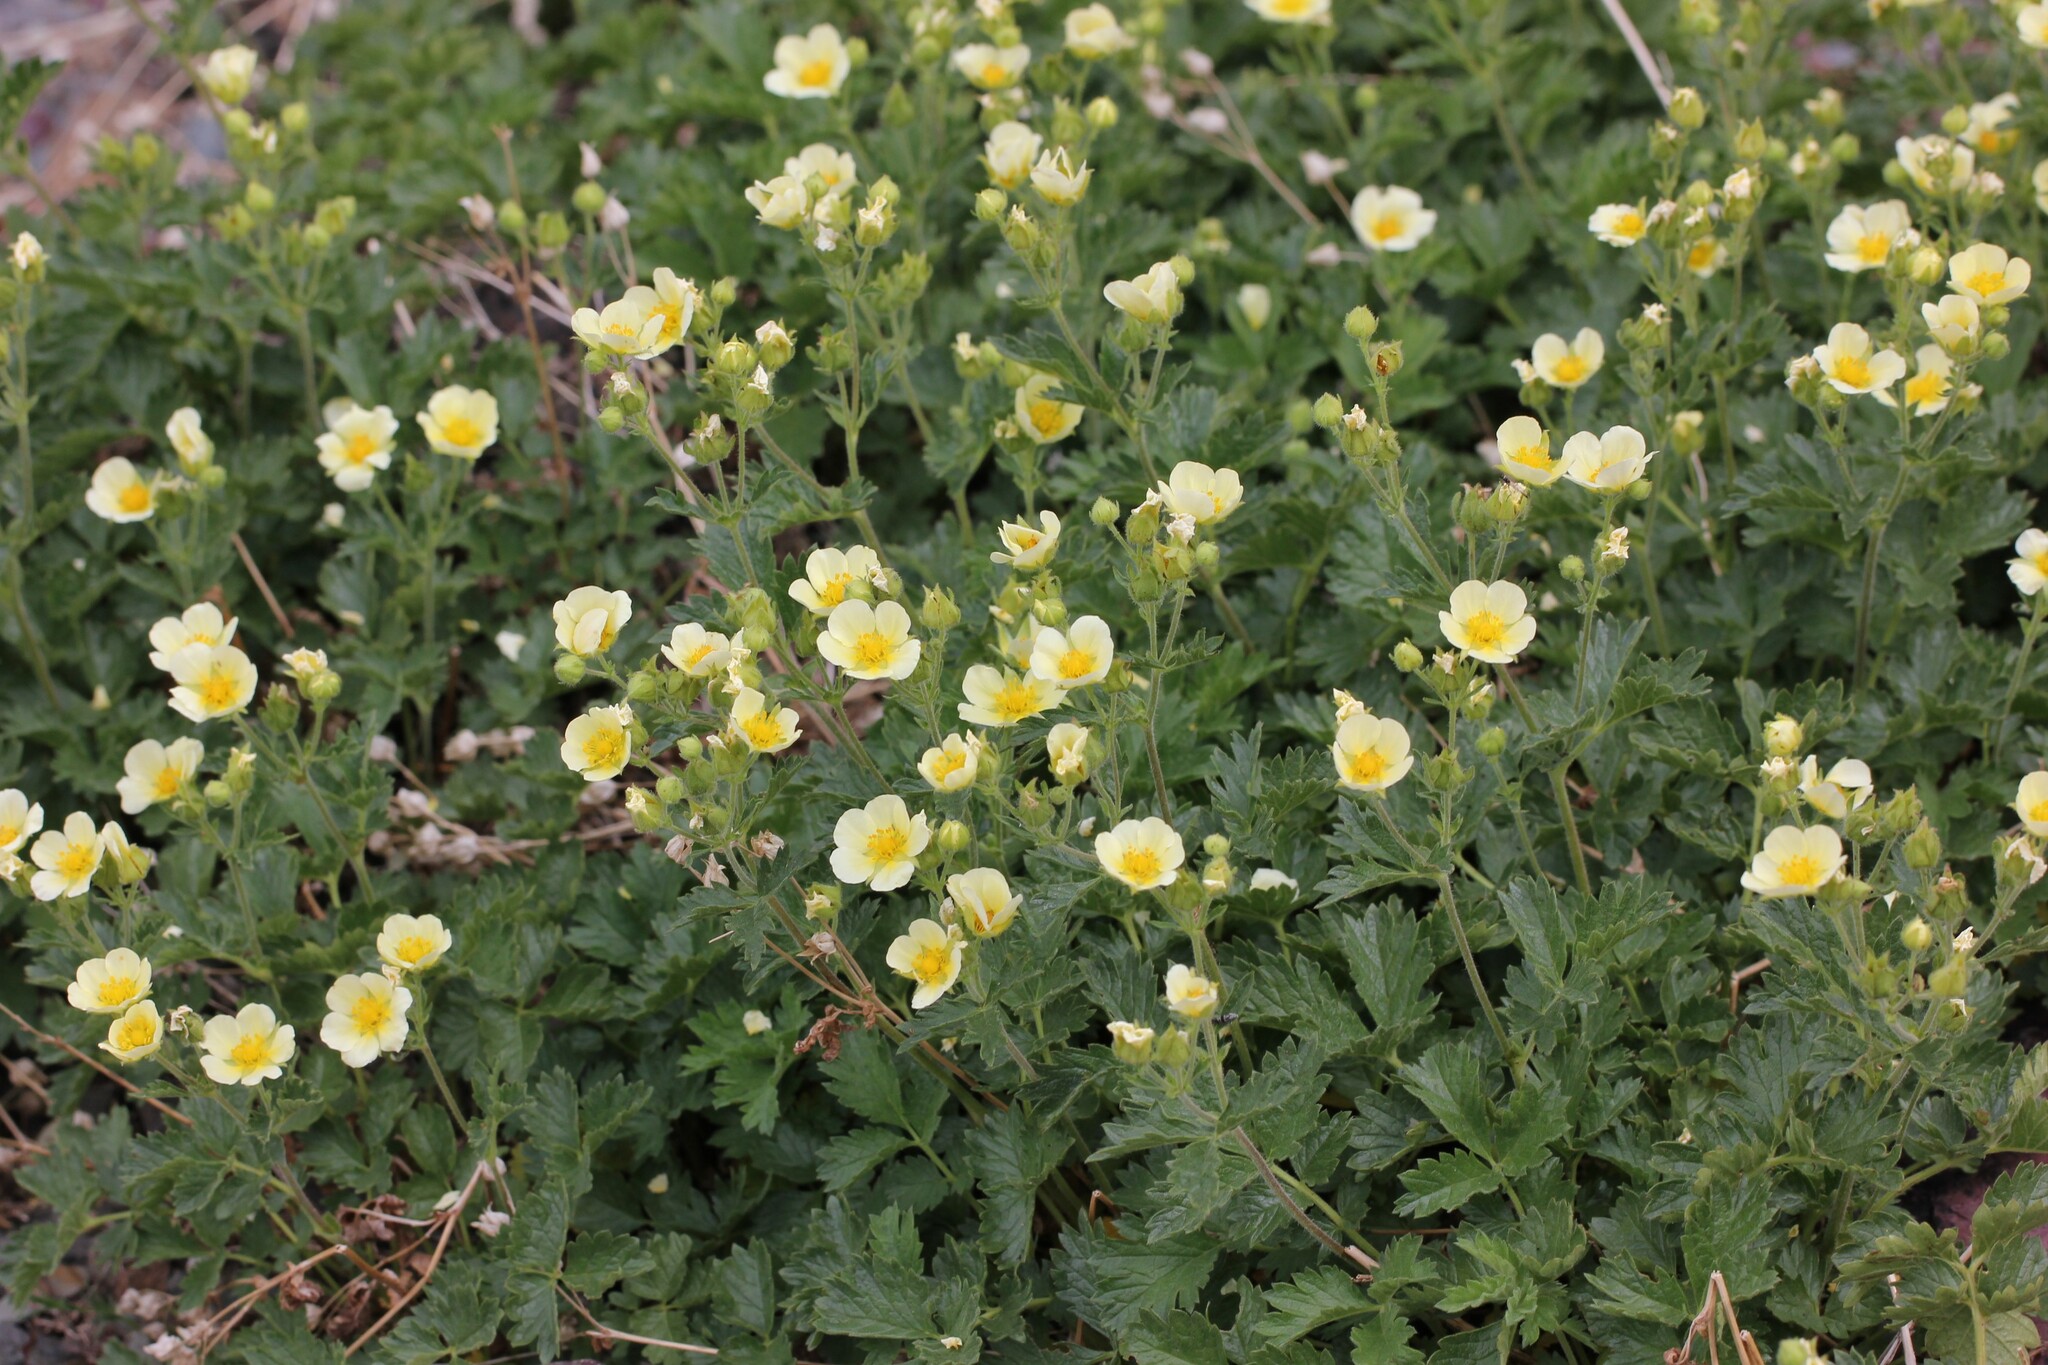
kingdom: Plantae
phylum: Tracheophyta
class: Magnoliopsida
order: Rosales
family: Rosaceae
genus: Drymocallis
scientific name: Drymocallis pseudorupestris
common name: Sticky cinquefoil
